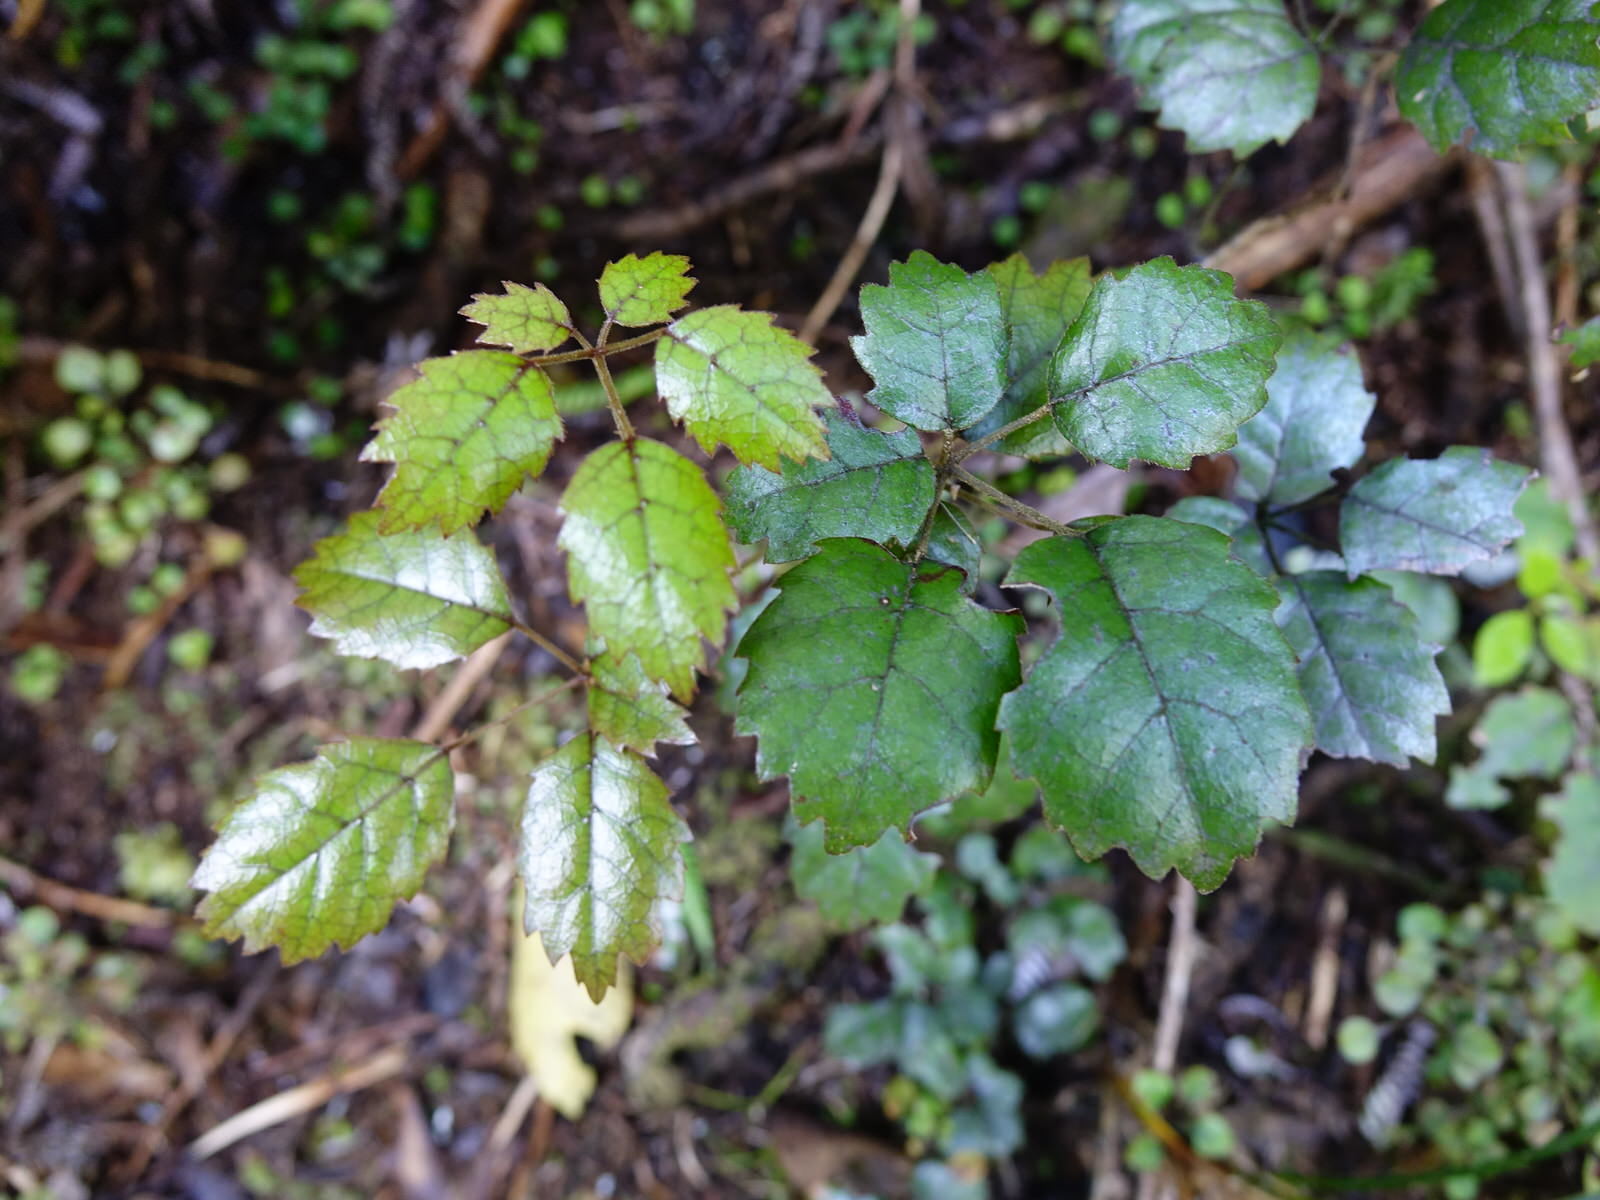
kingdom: Plantae
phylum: Tracheophyta
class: Magnoliopsida
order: Rosales
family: Rosaceae
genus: Rubus
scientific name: Rubus australis
